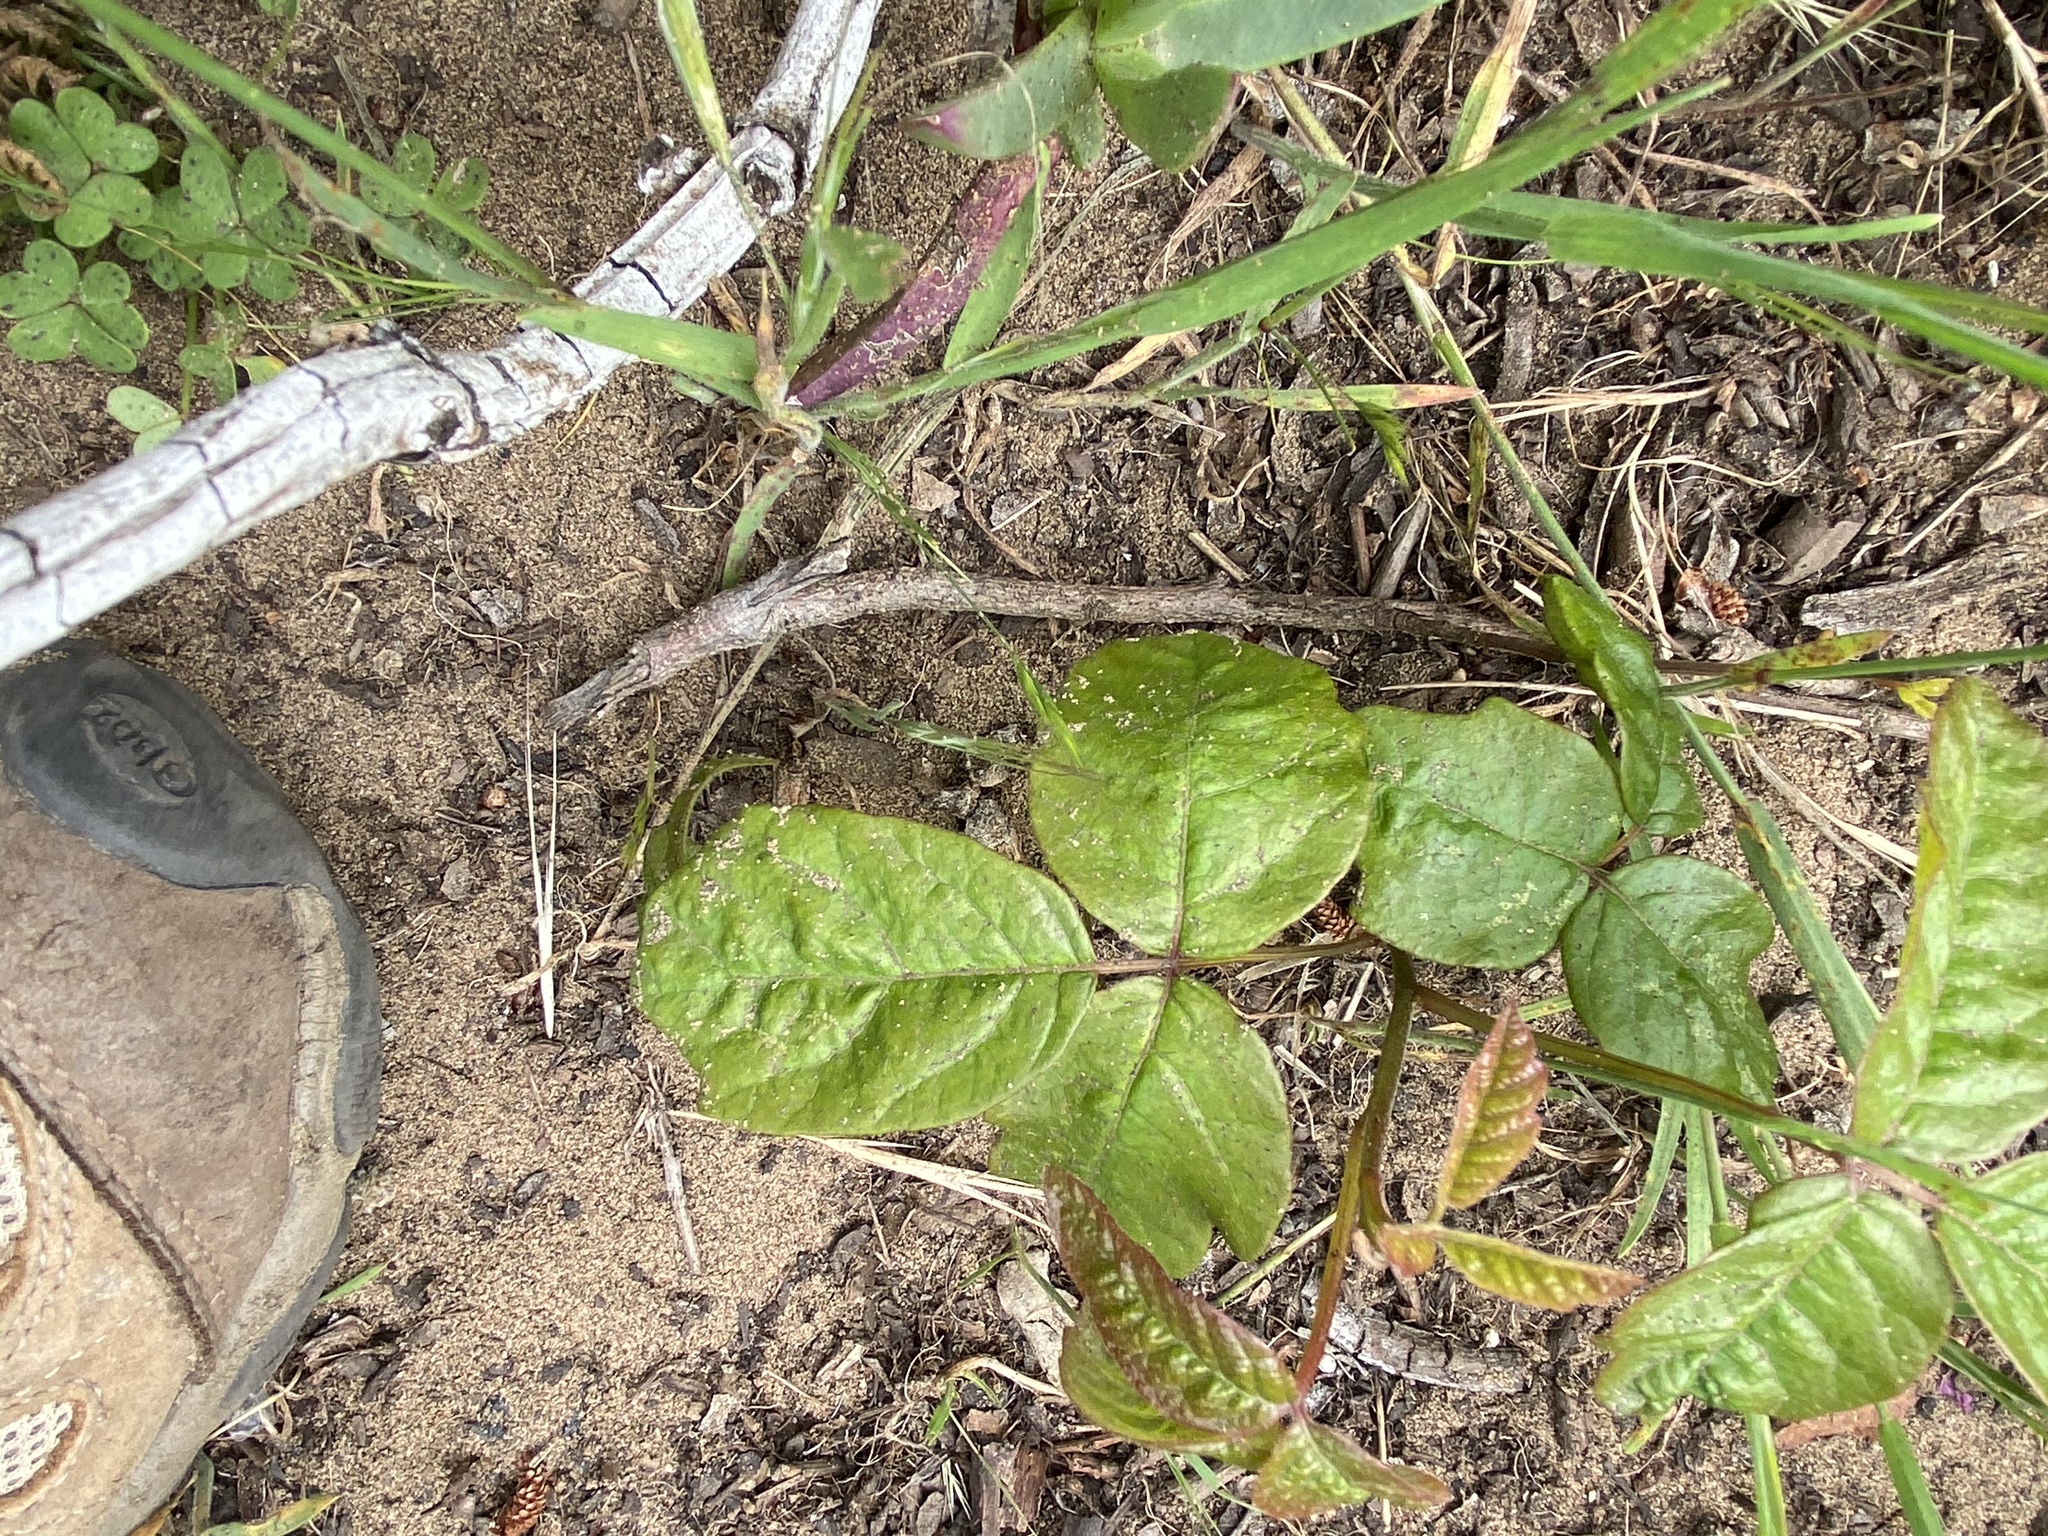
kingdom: Plantae
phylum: Tracheophyta
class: Magnoliopsida
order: Sapindales
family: Anacardiaceae
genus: Toxicodendron
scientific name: Toxicodendron diversilobum
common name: Pacific poison-oak
